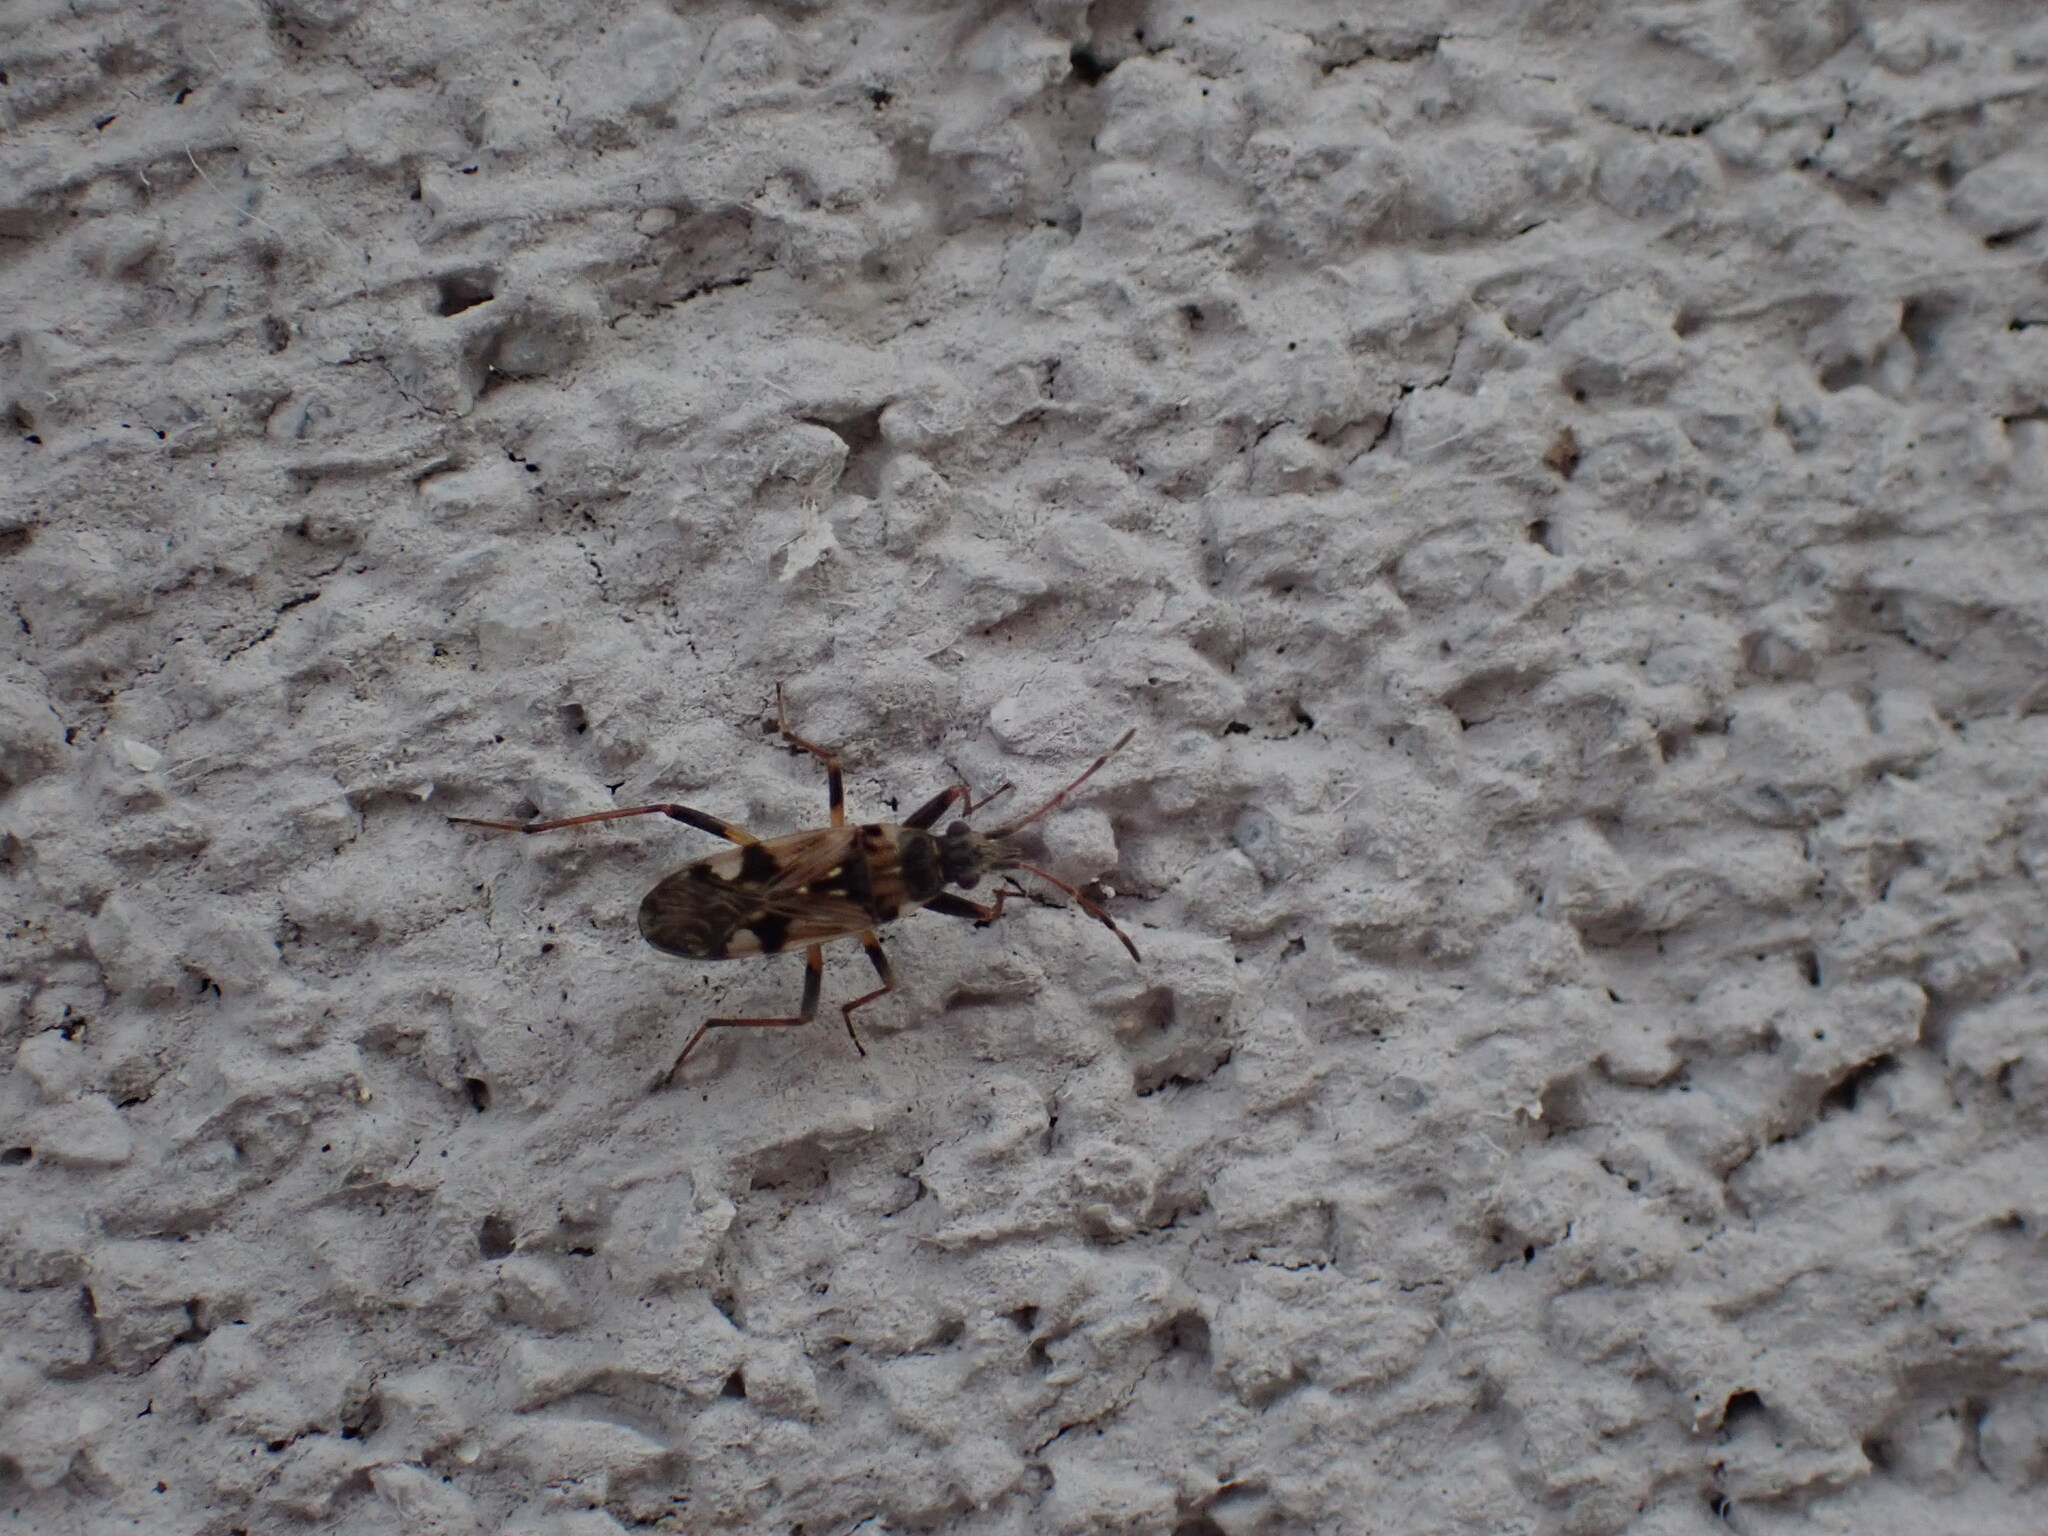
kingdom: Animalia
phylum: Arthropoda
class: Insecta
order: Hemiptera
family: Rhyparochromidae
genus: Beosus
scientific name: Beosus maritimus
